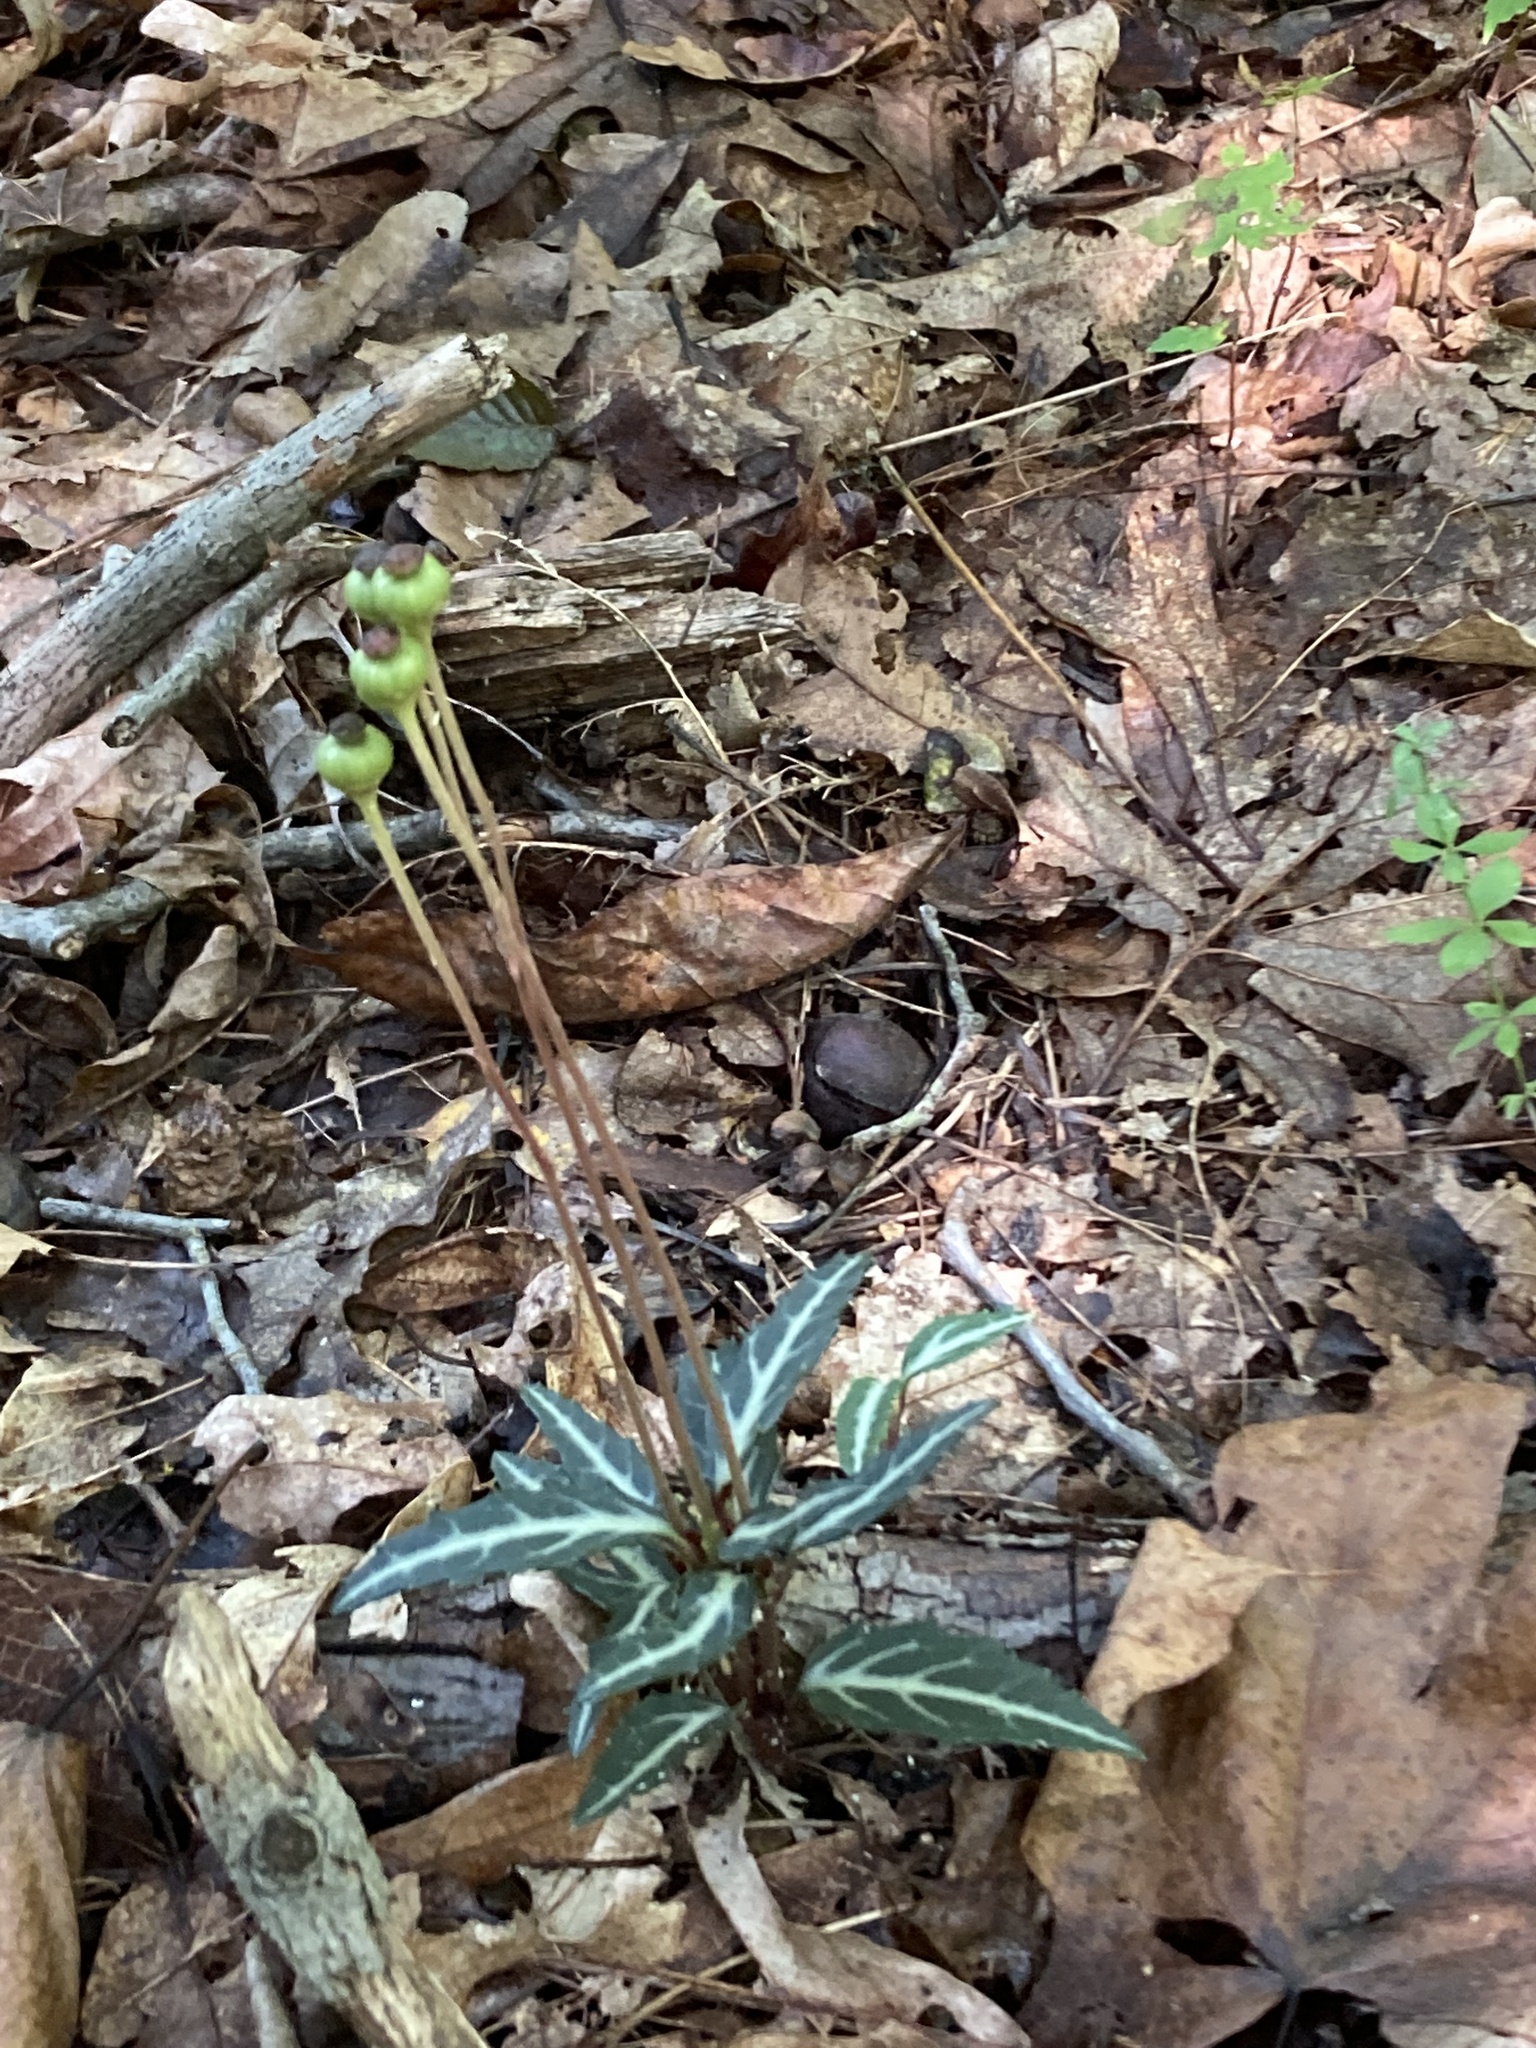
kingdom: Plantae
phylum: Tracheophyta
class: Magnoliopsida
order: Ericales
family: Ericaceae
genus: Chimaphila
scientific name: Chimaphila maculata
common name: Spotted pipsissewa
